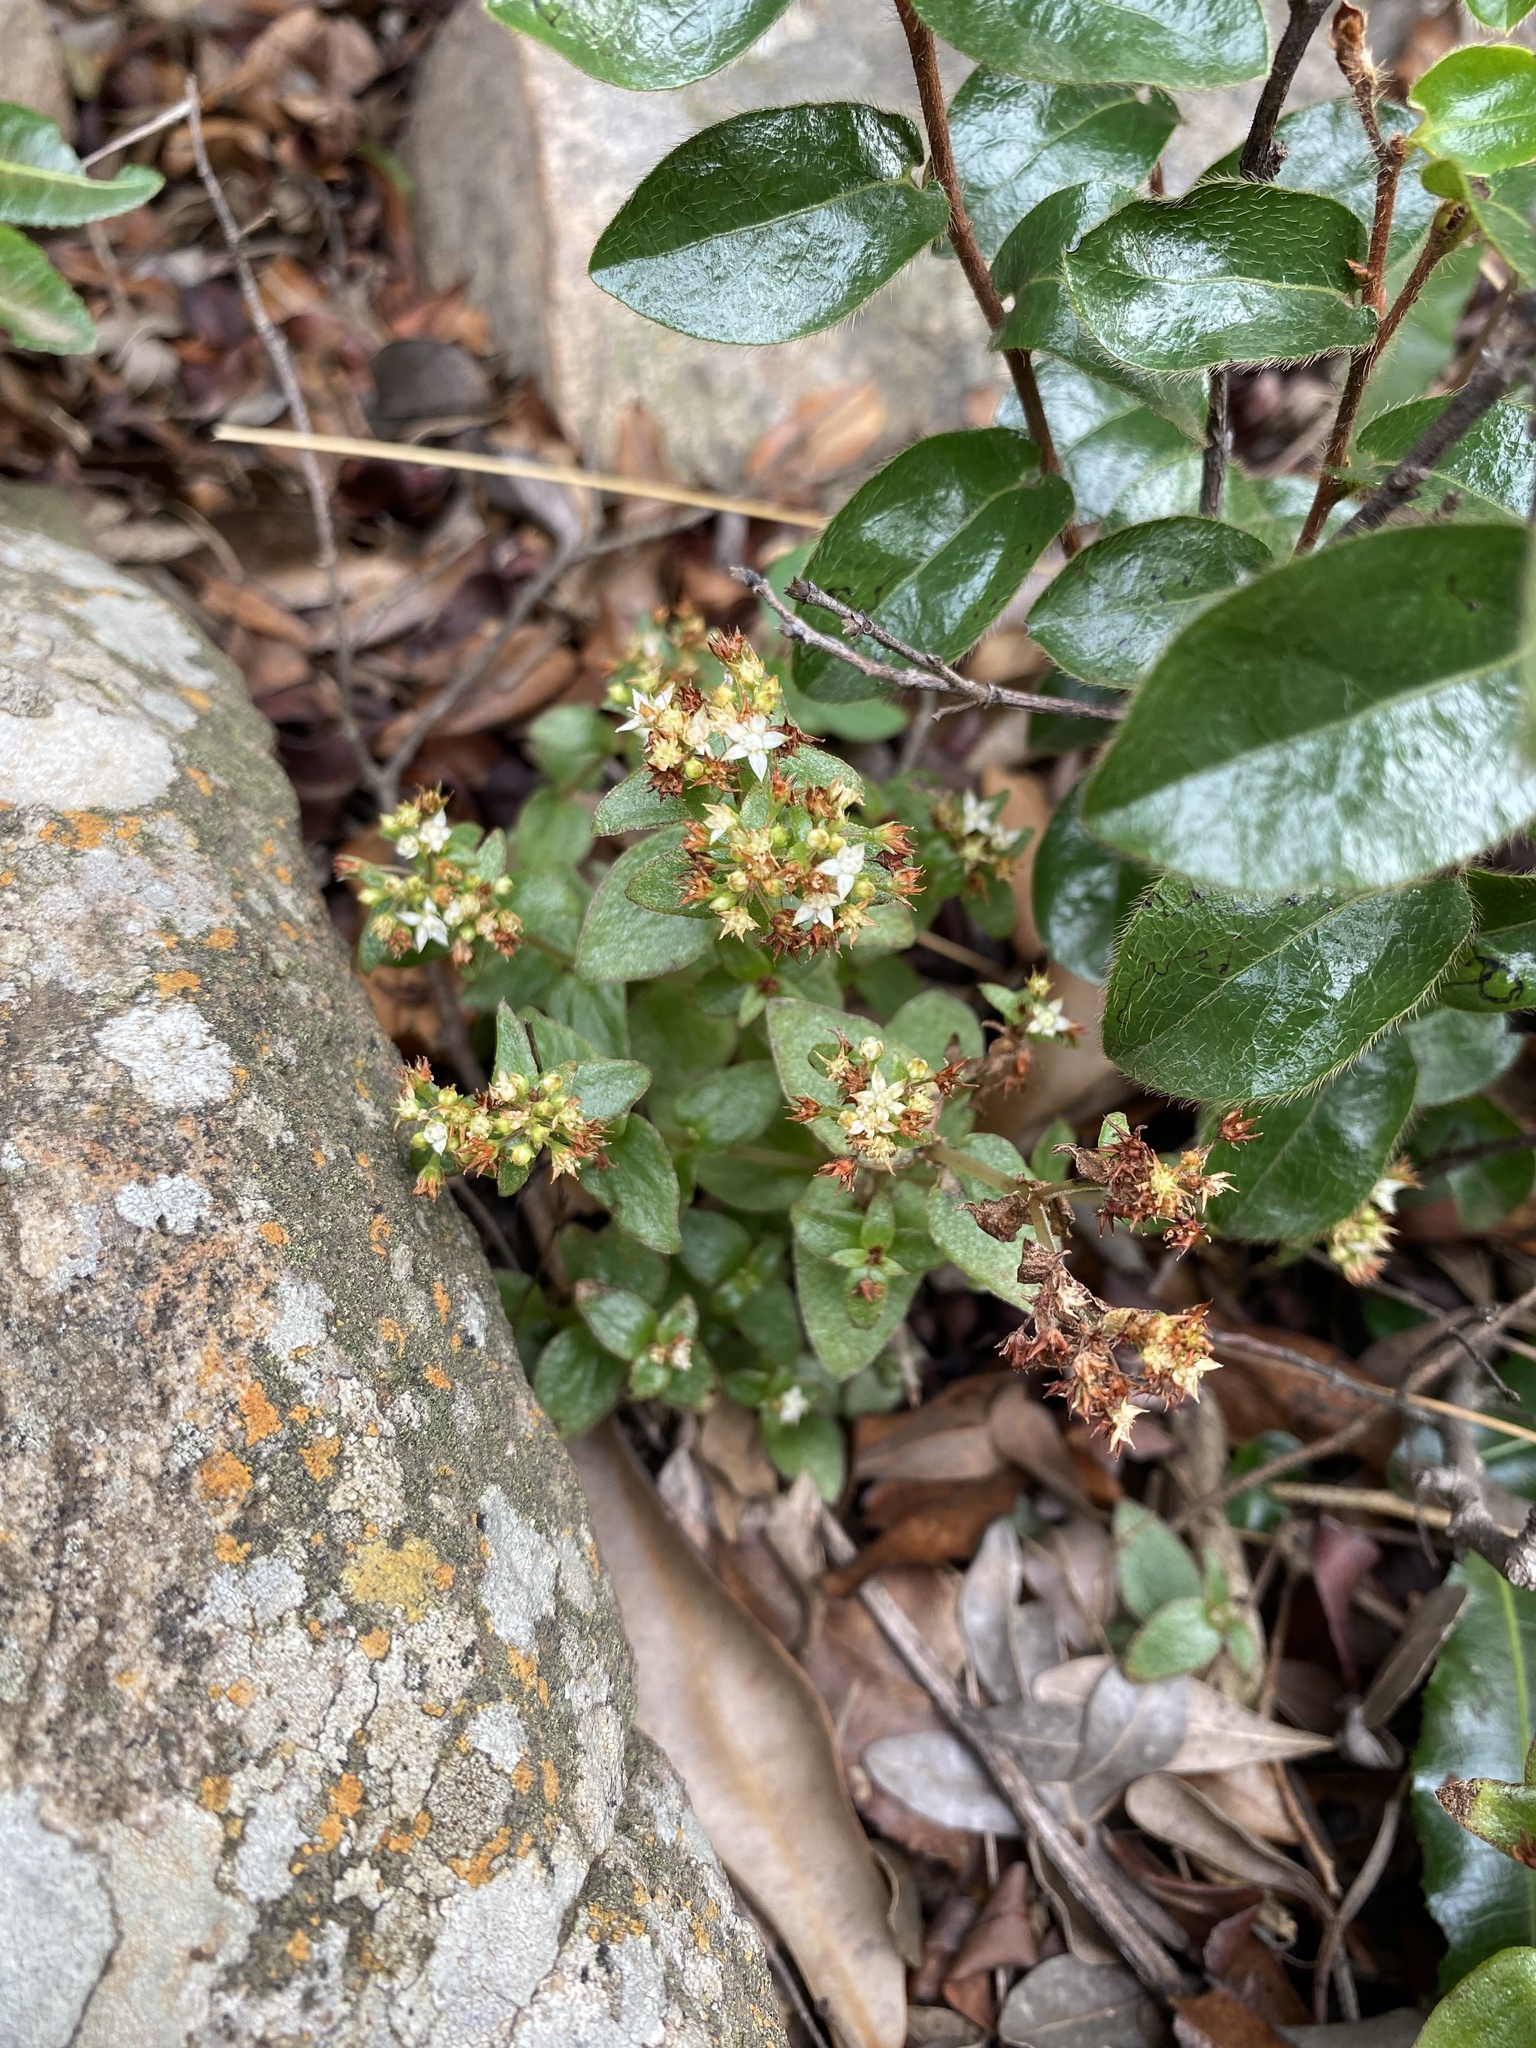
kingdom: Plantae
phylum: Tracheophyta
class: Magnoliopsida
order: Saxifragales
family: Crassulaceae
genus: Crassula
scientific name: Crassula pellucida
